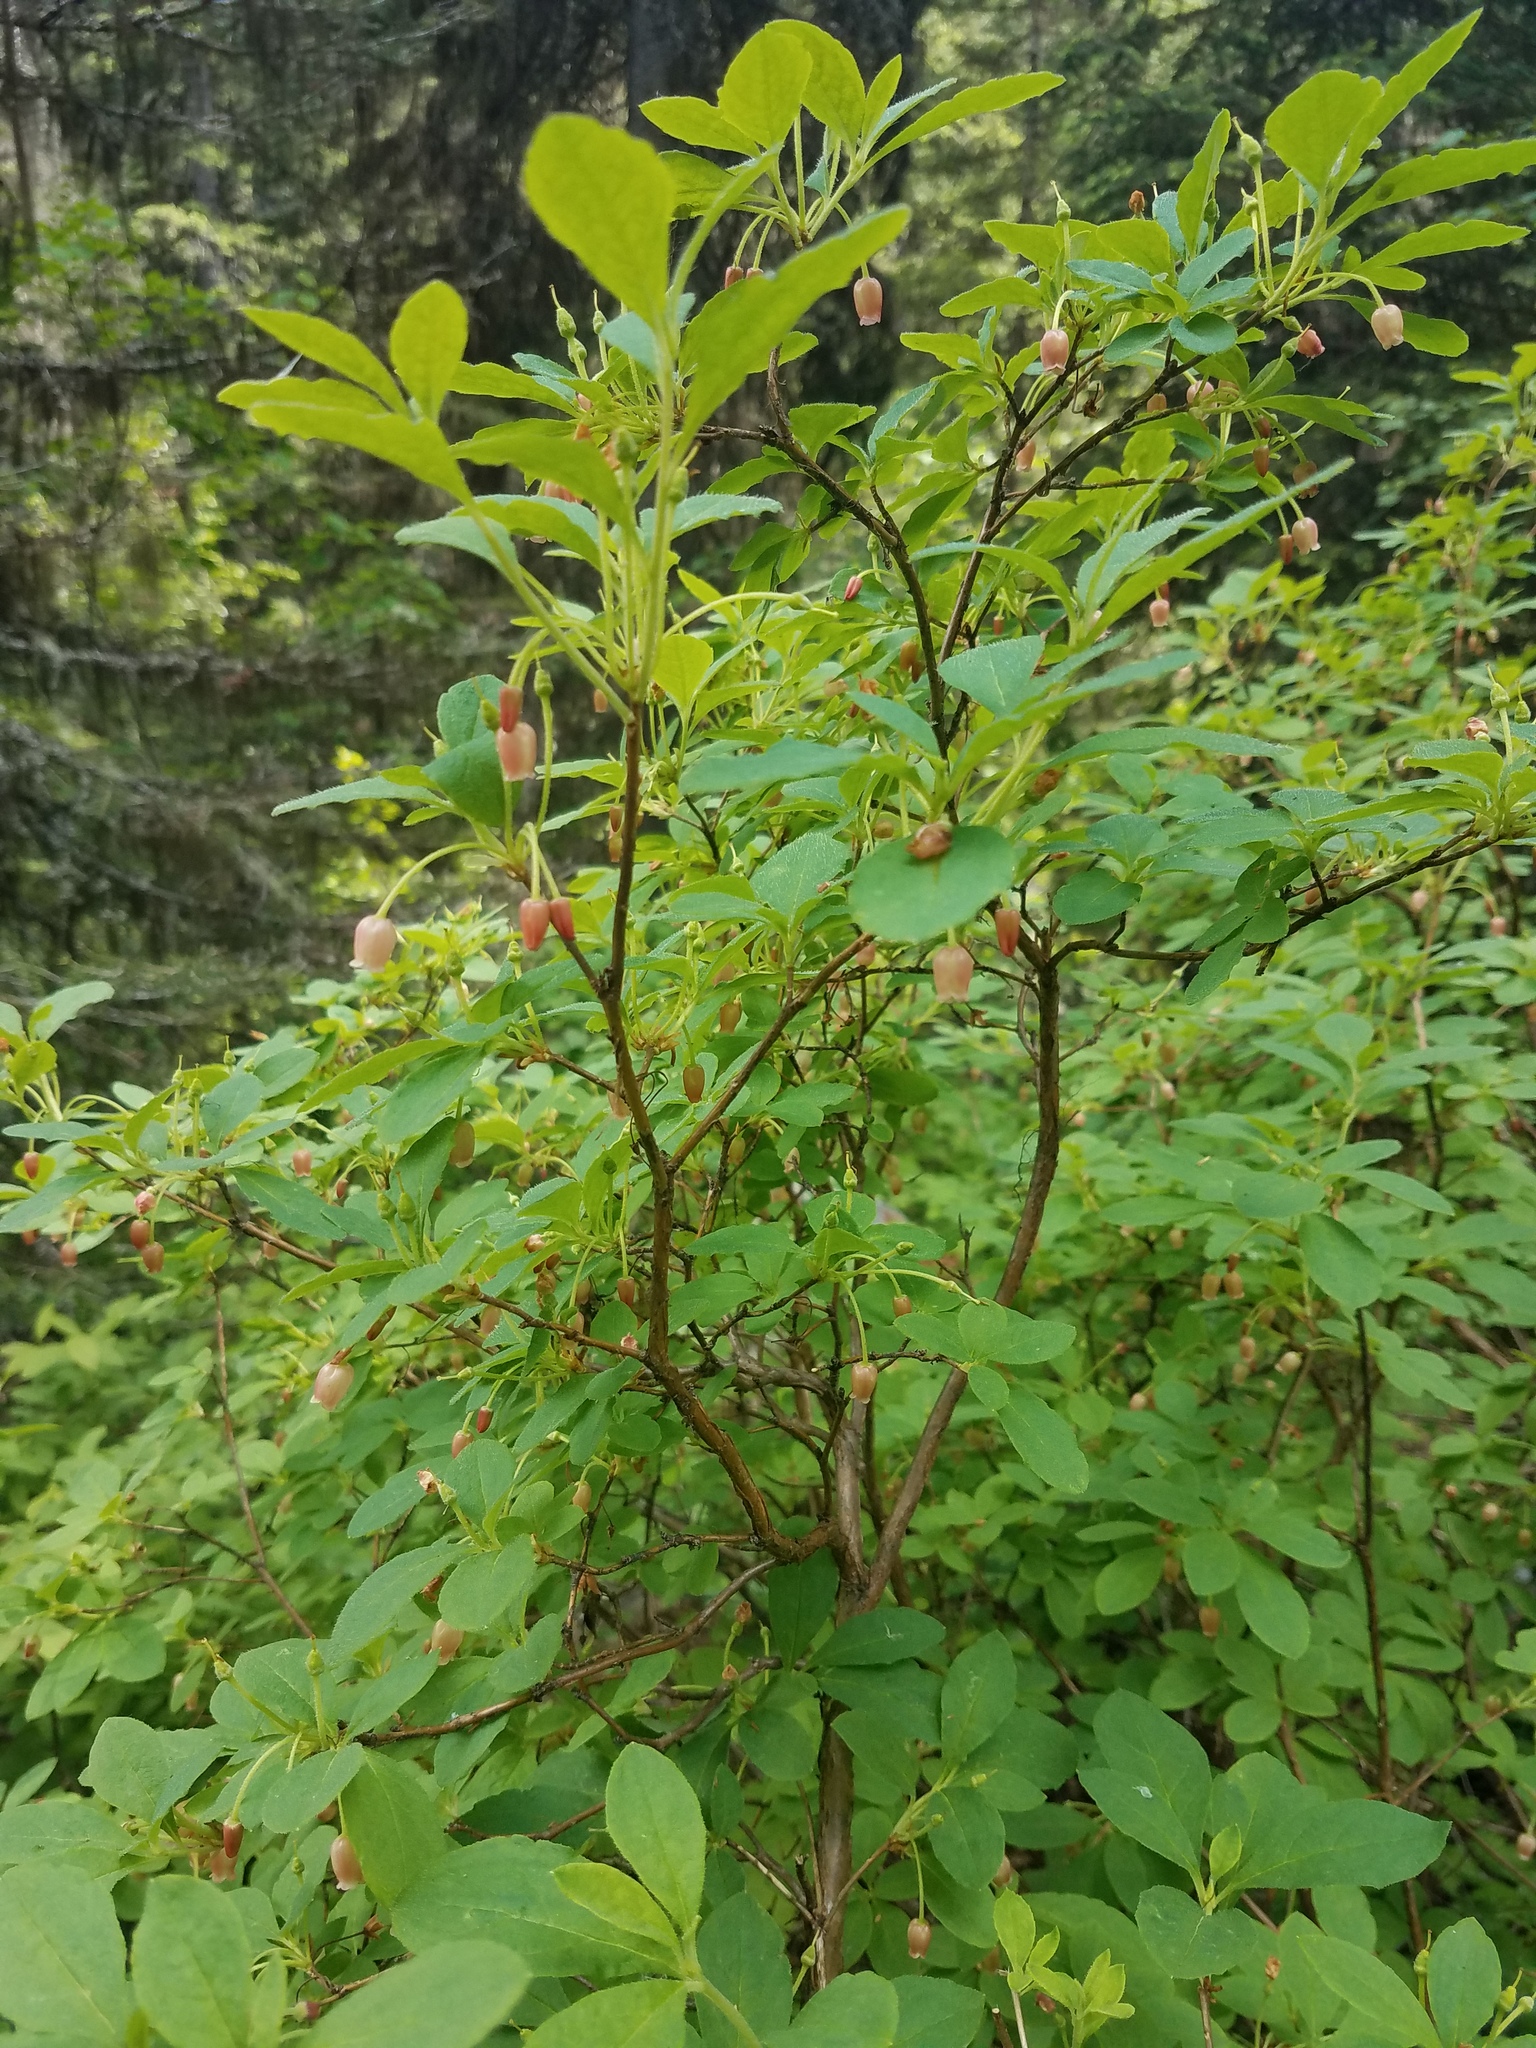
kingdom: Plantae
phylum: Tracheophyta
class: Magnoliopsida
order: Ericales
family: Ericaceae
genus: Rhododendron
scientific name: Rhododendron menziesii
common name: Pacific menziesia
